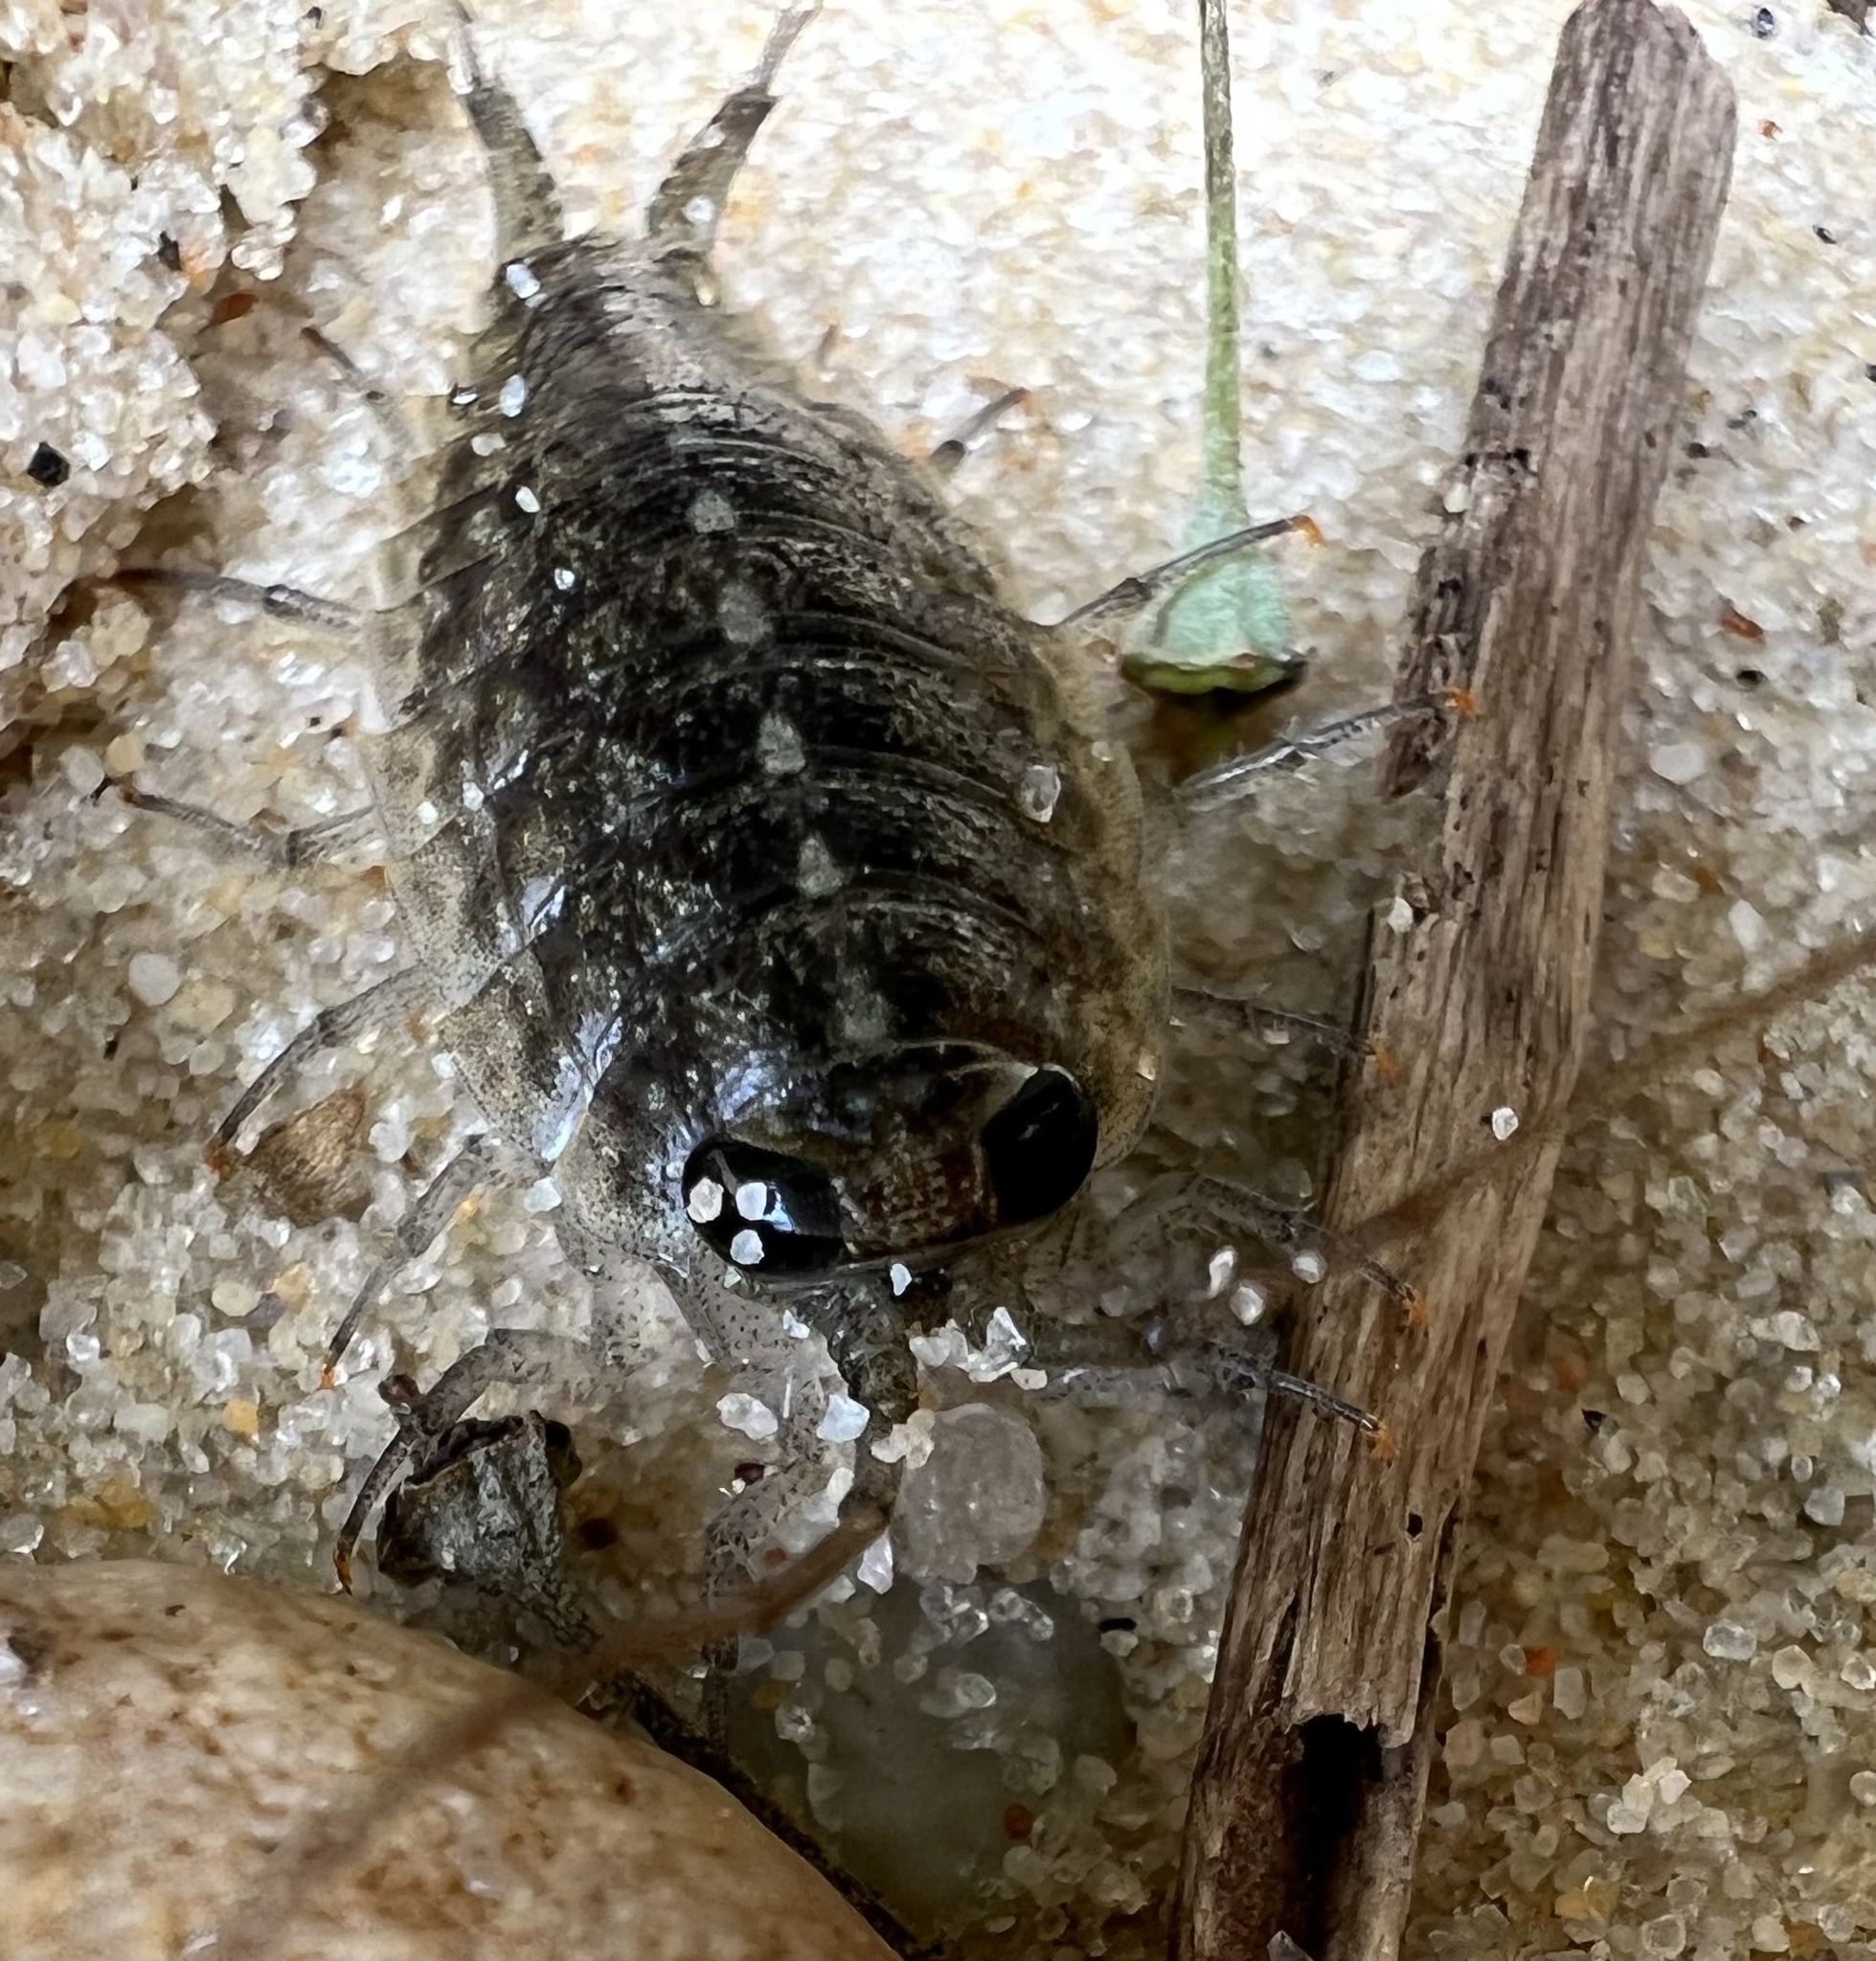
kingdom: Animalia
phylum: Arthropoda
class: Malacostraca
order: Isopoda
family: Ligiidae
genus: Ligia
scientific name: Ligia exotica
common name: Wharf roach
